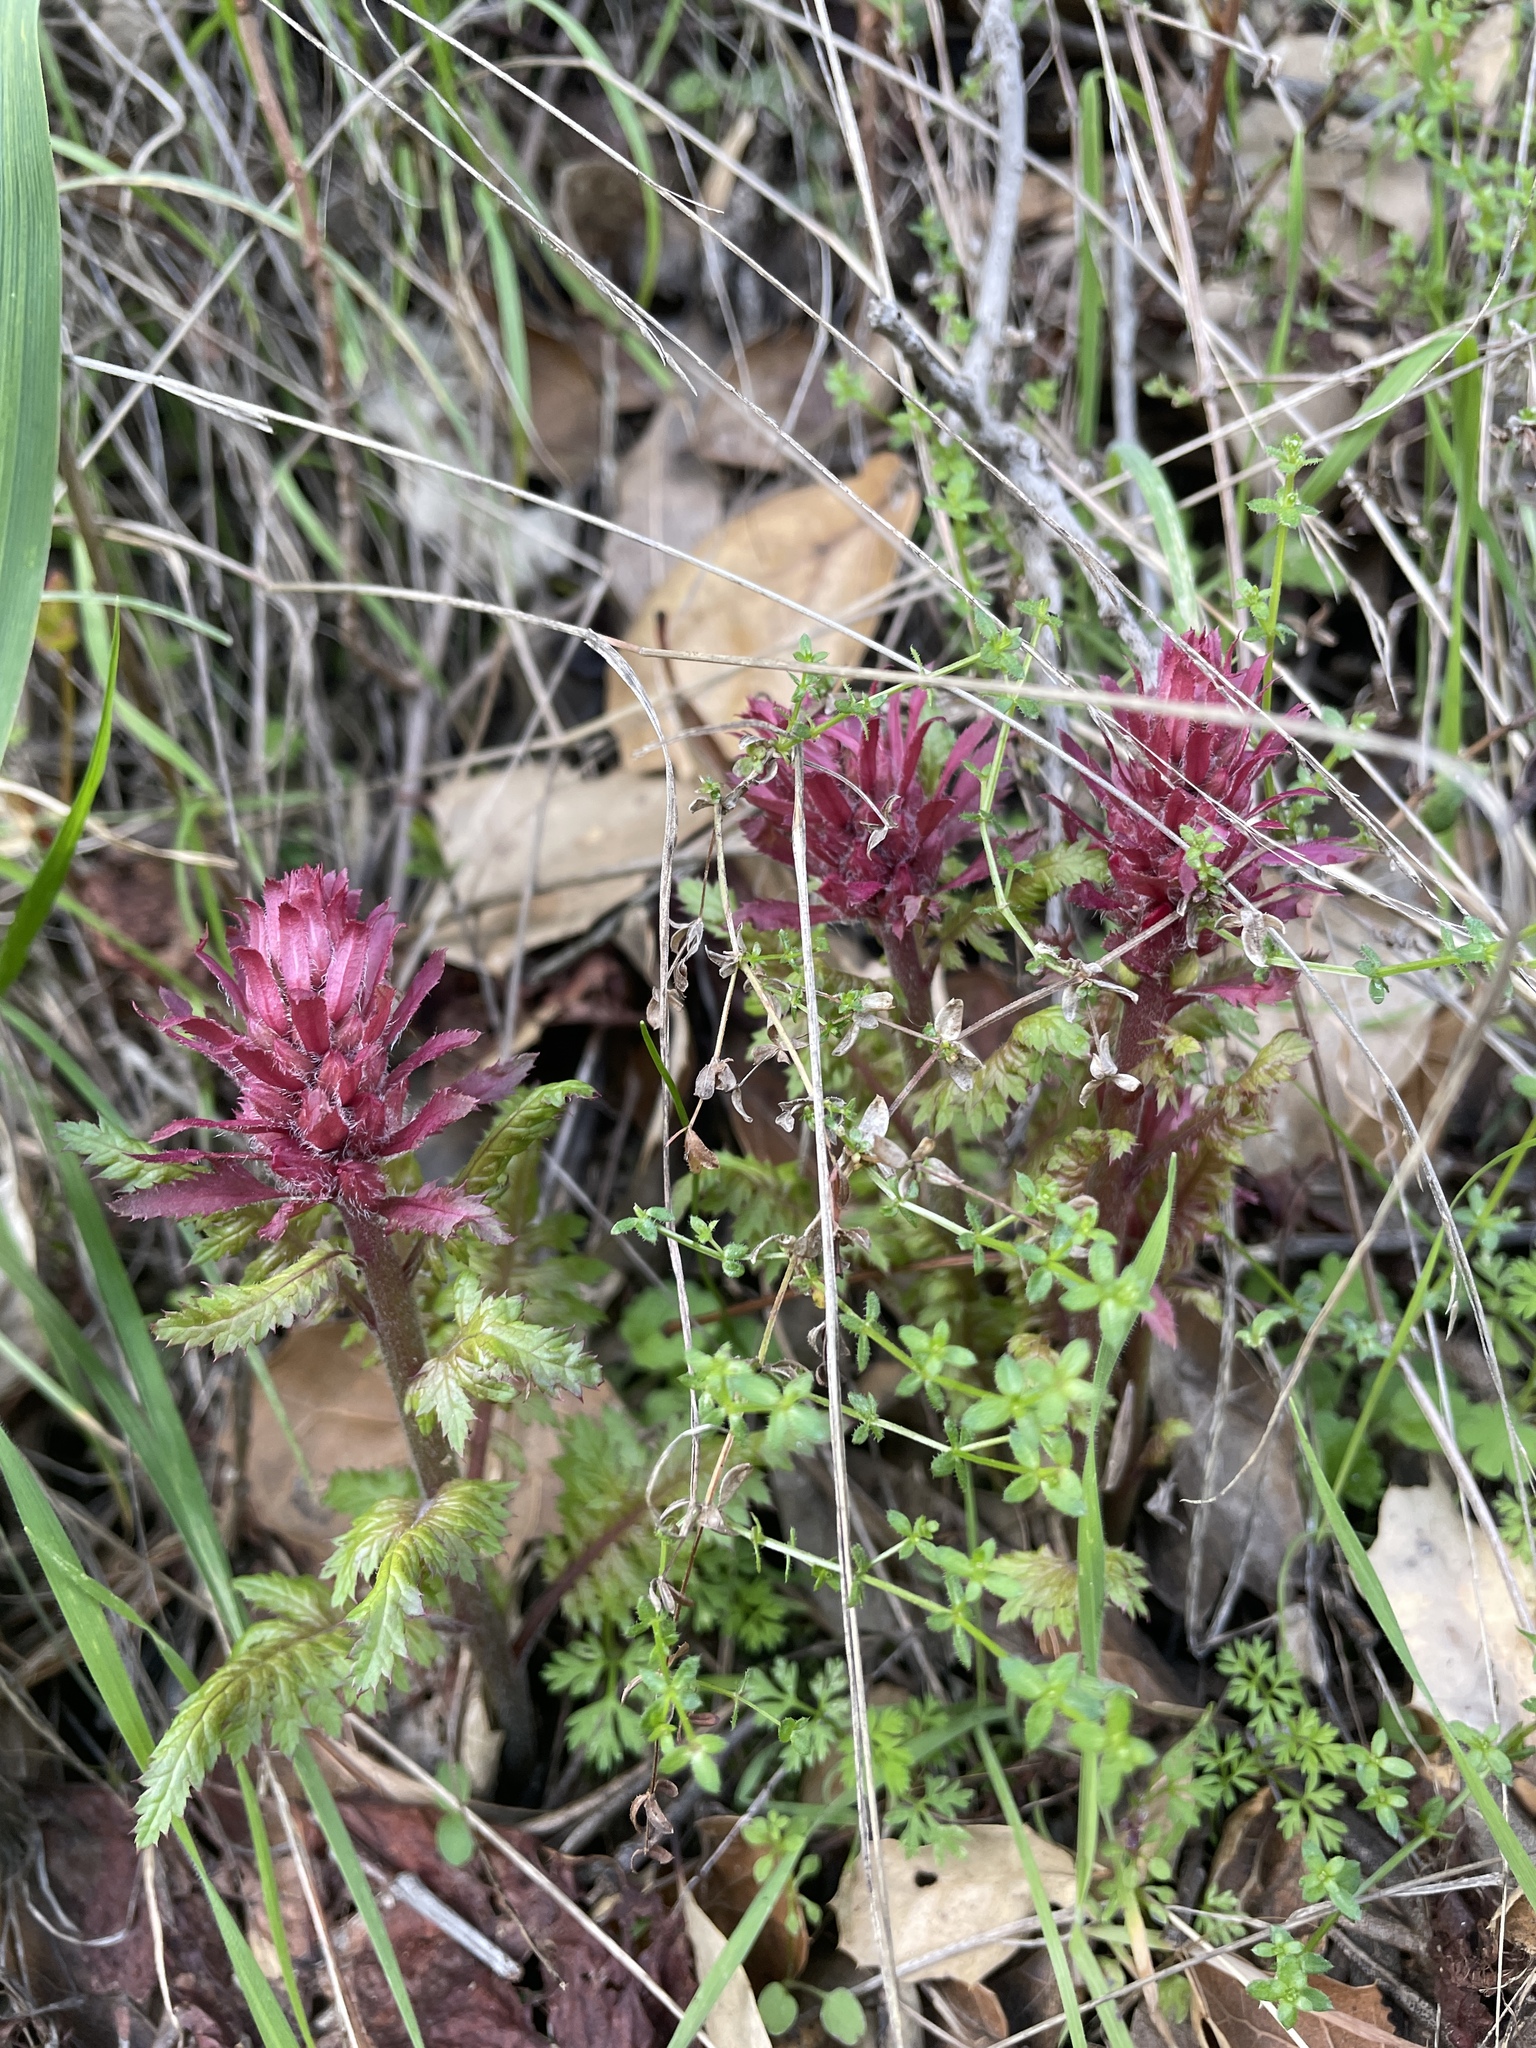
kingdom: Plantae
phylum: Tracheophyta
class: Magnoliopsida
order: Lamiales
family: Orobanchaceae
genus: Pedicularis
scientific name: Pedicularis densiflora
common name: Indian warrior
